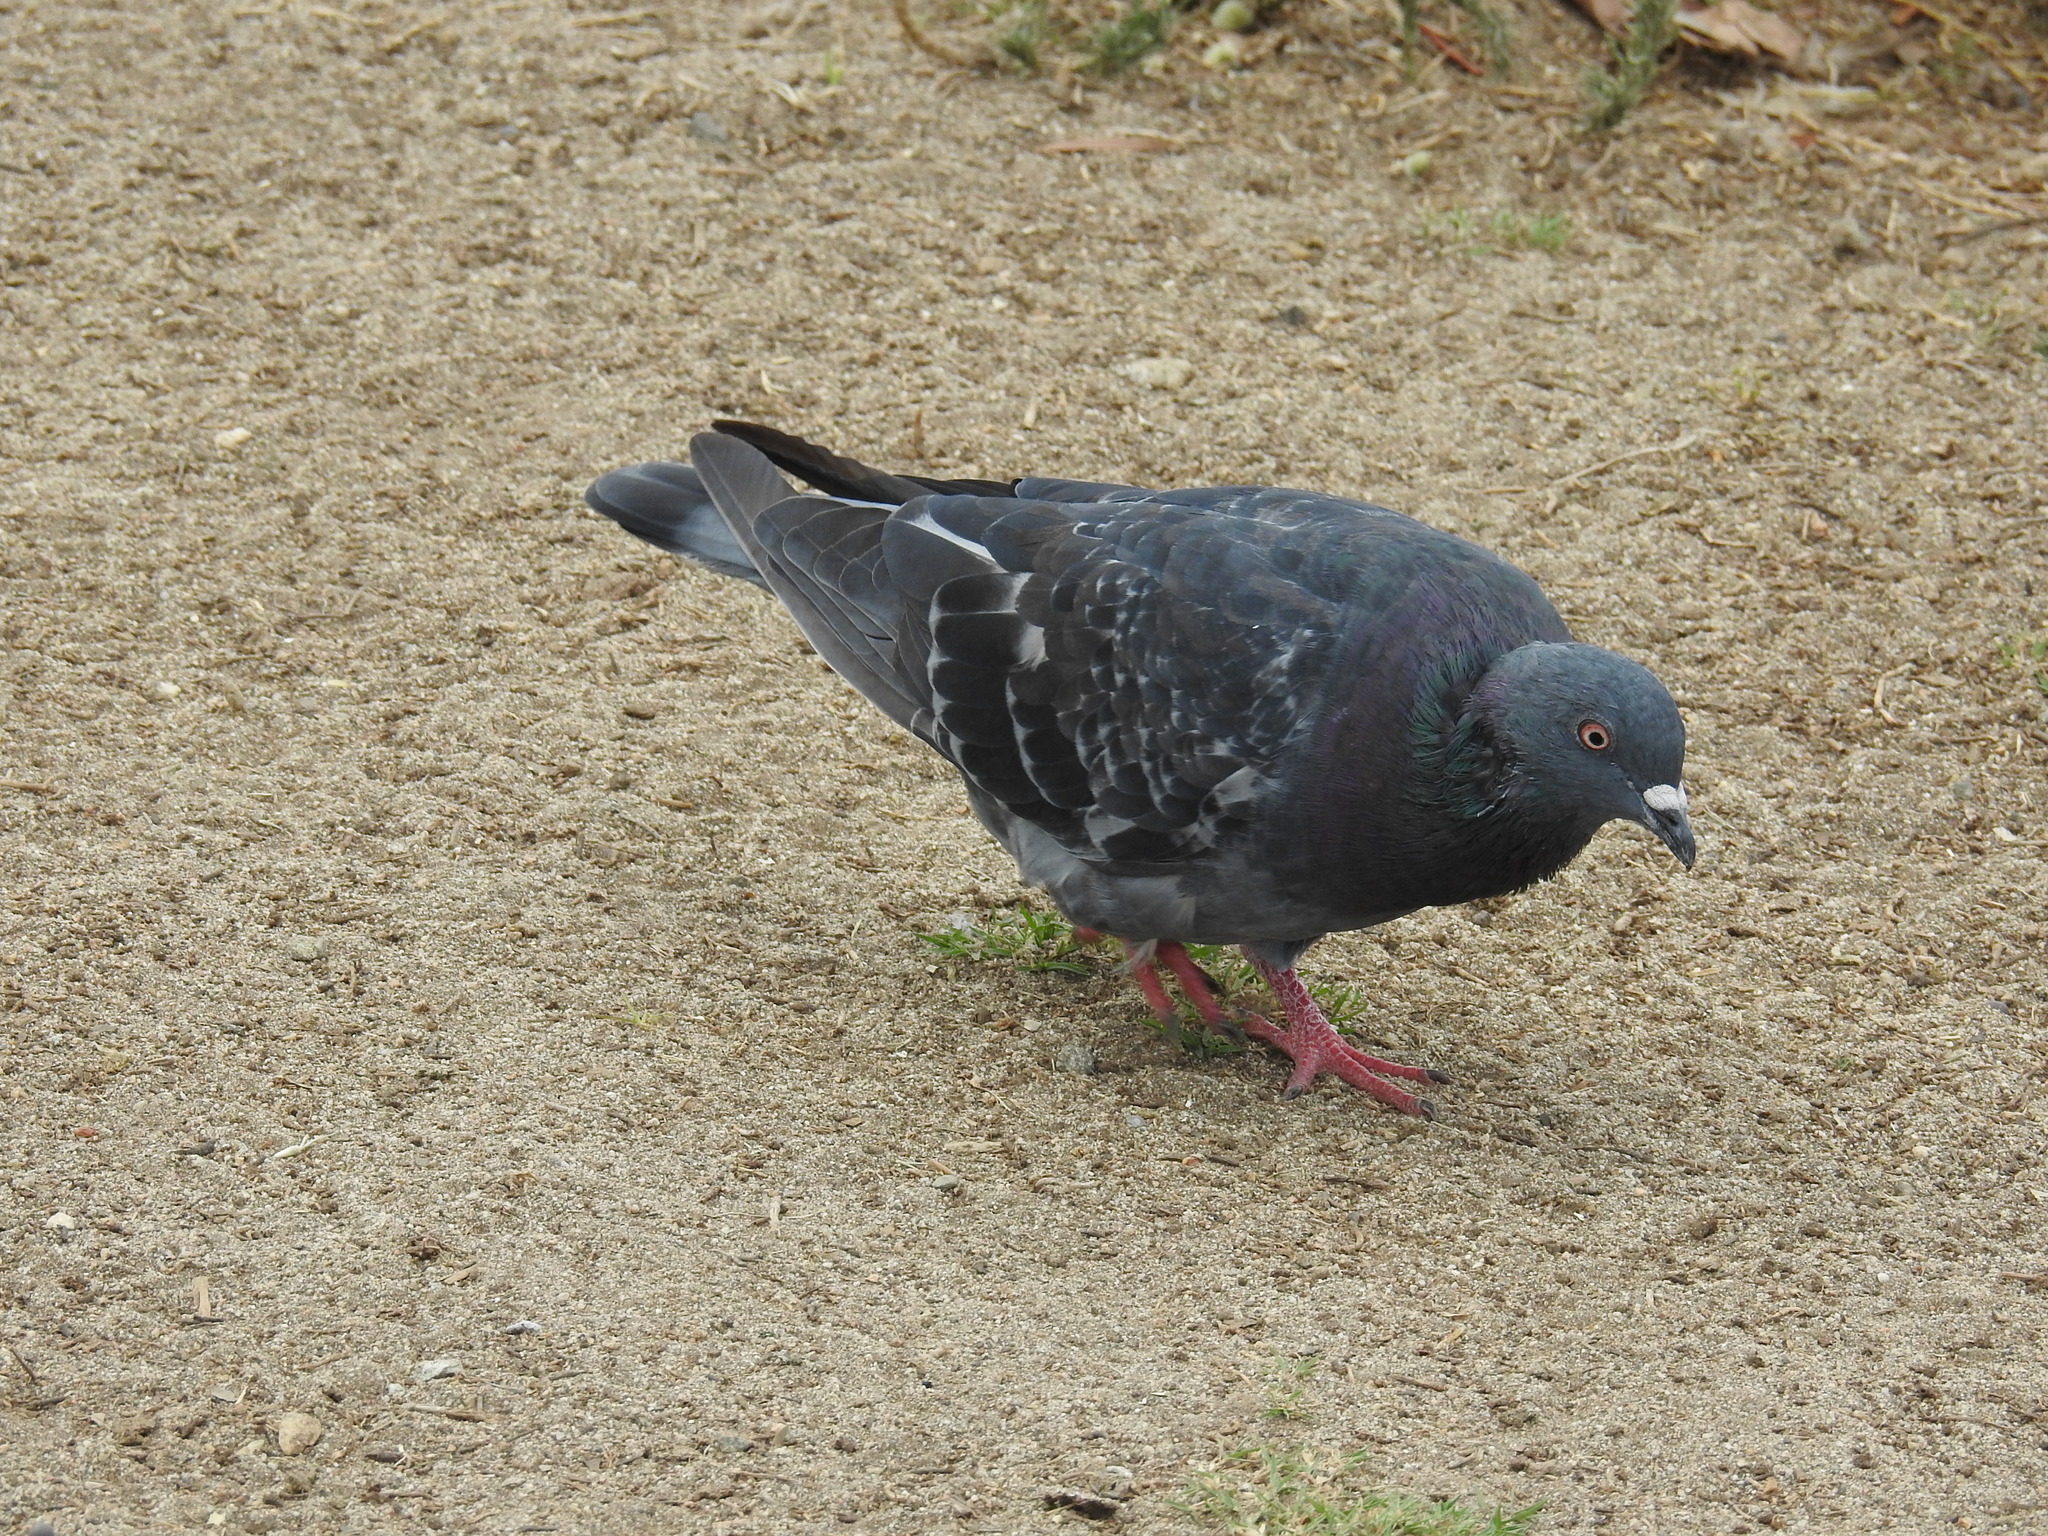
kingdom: Animalia
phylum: Chordata
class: Aves
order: Columbiformes
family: Columbidae
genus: Columba
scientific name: Columba livia
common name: Rock pigeon
